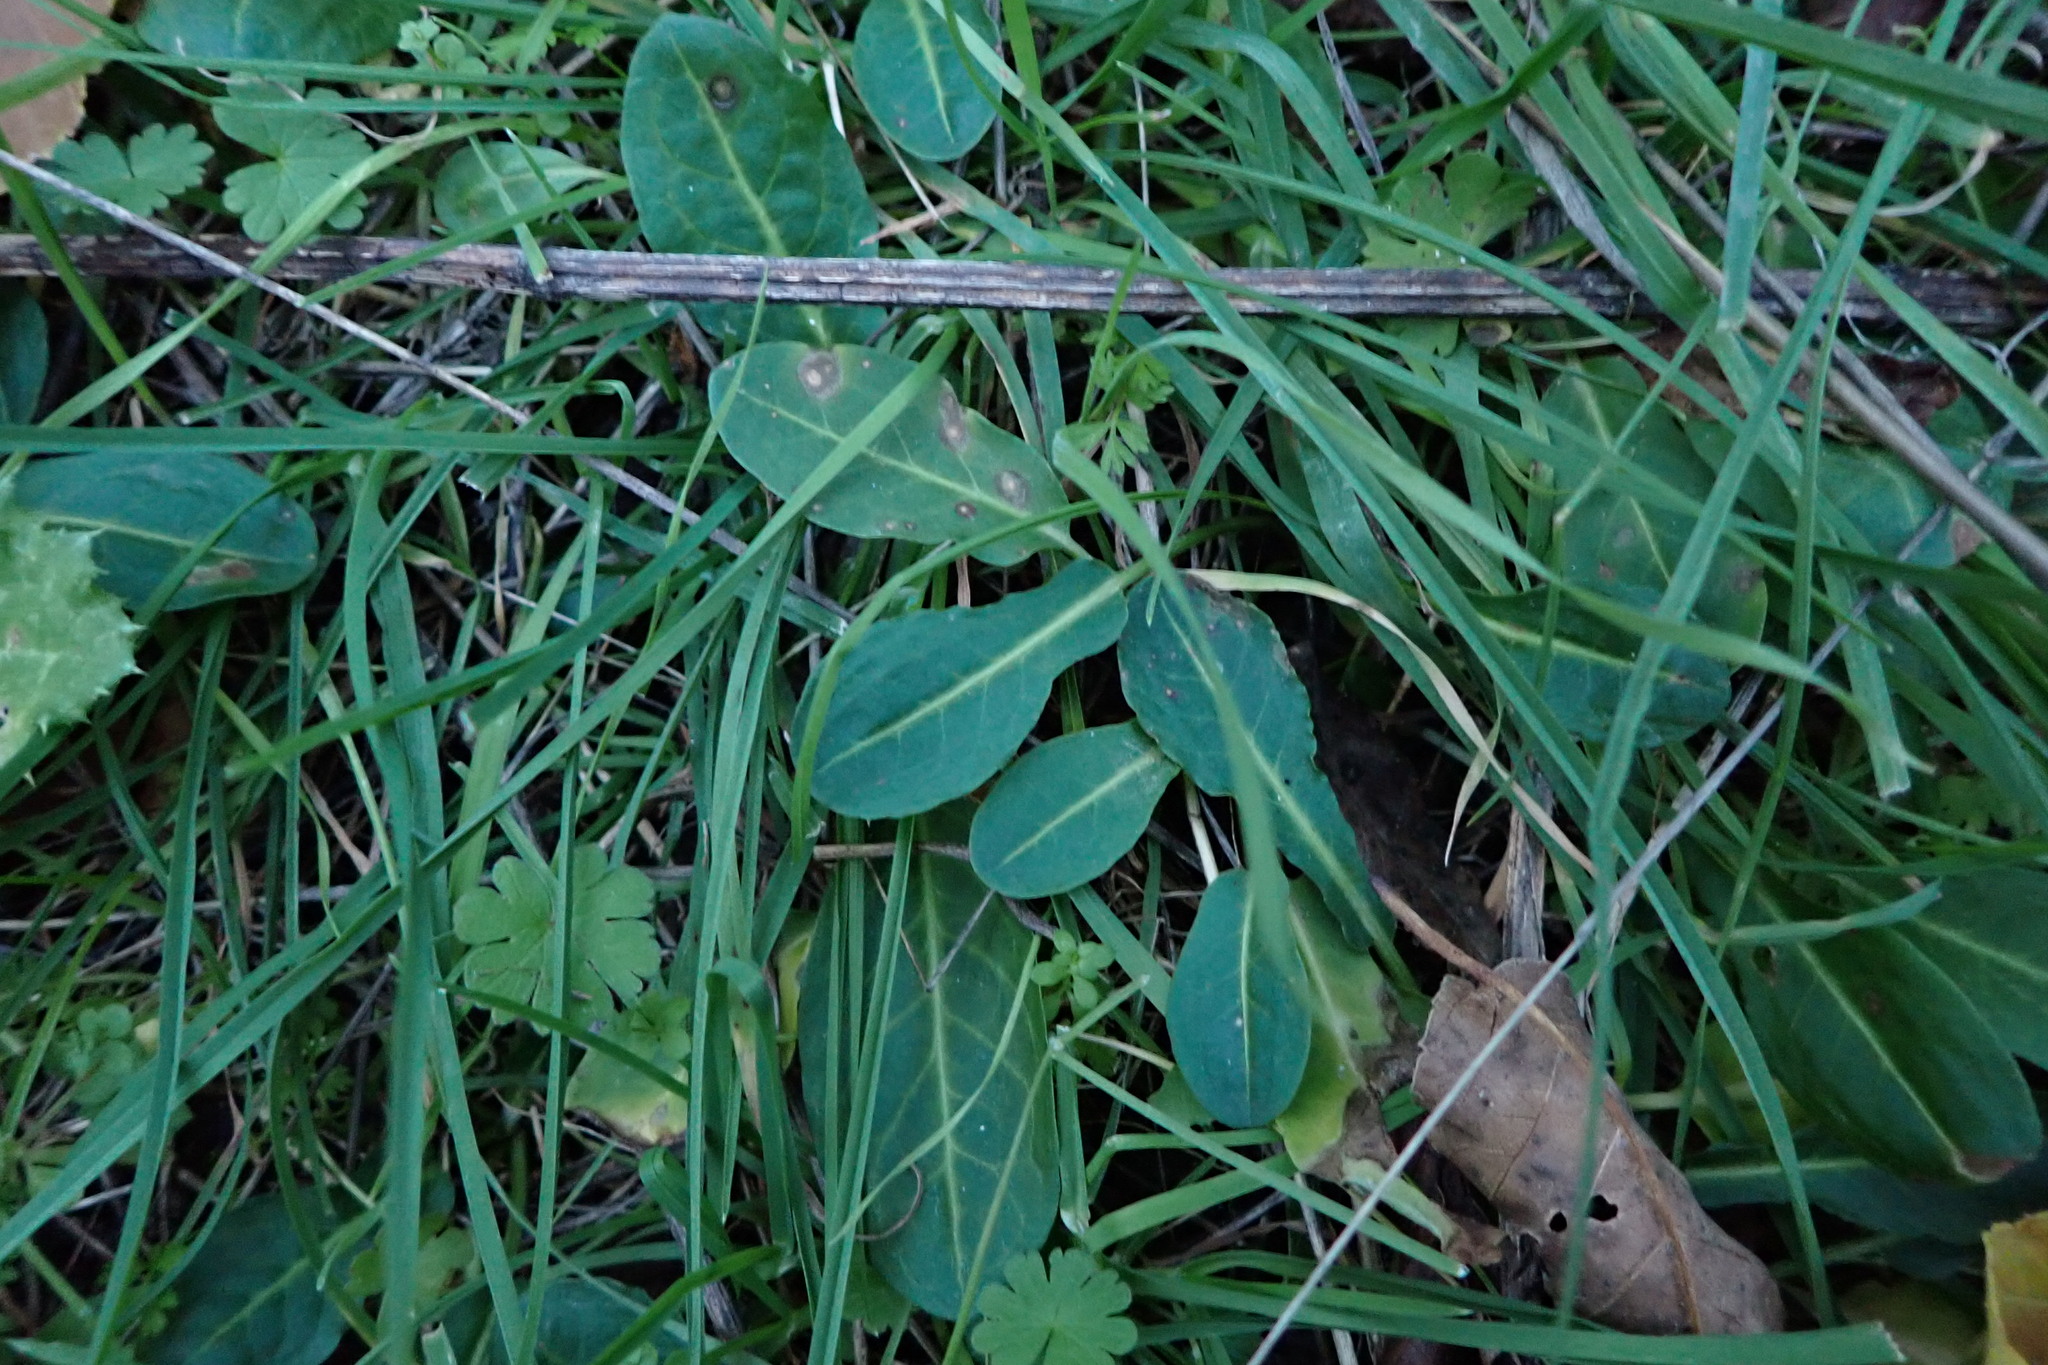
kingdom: Plantae
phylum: Tracheophyta
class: Magnoliopsida
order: Caryophyllales
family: Polygonaceae
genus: Rumex
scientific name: Rumex pulcher
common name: Fiddle dock
